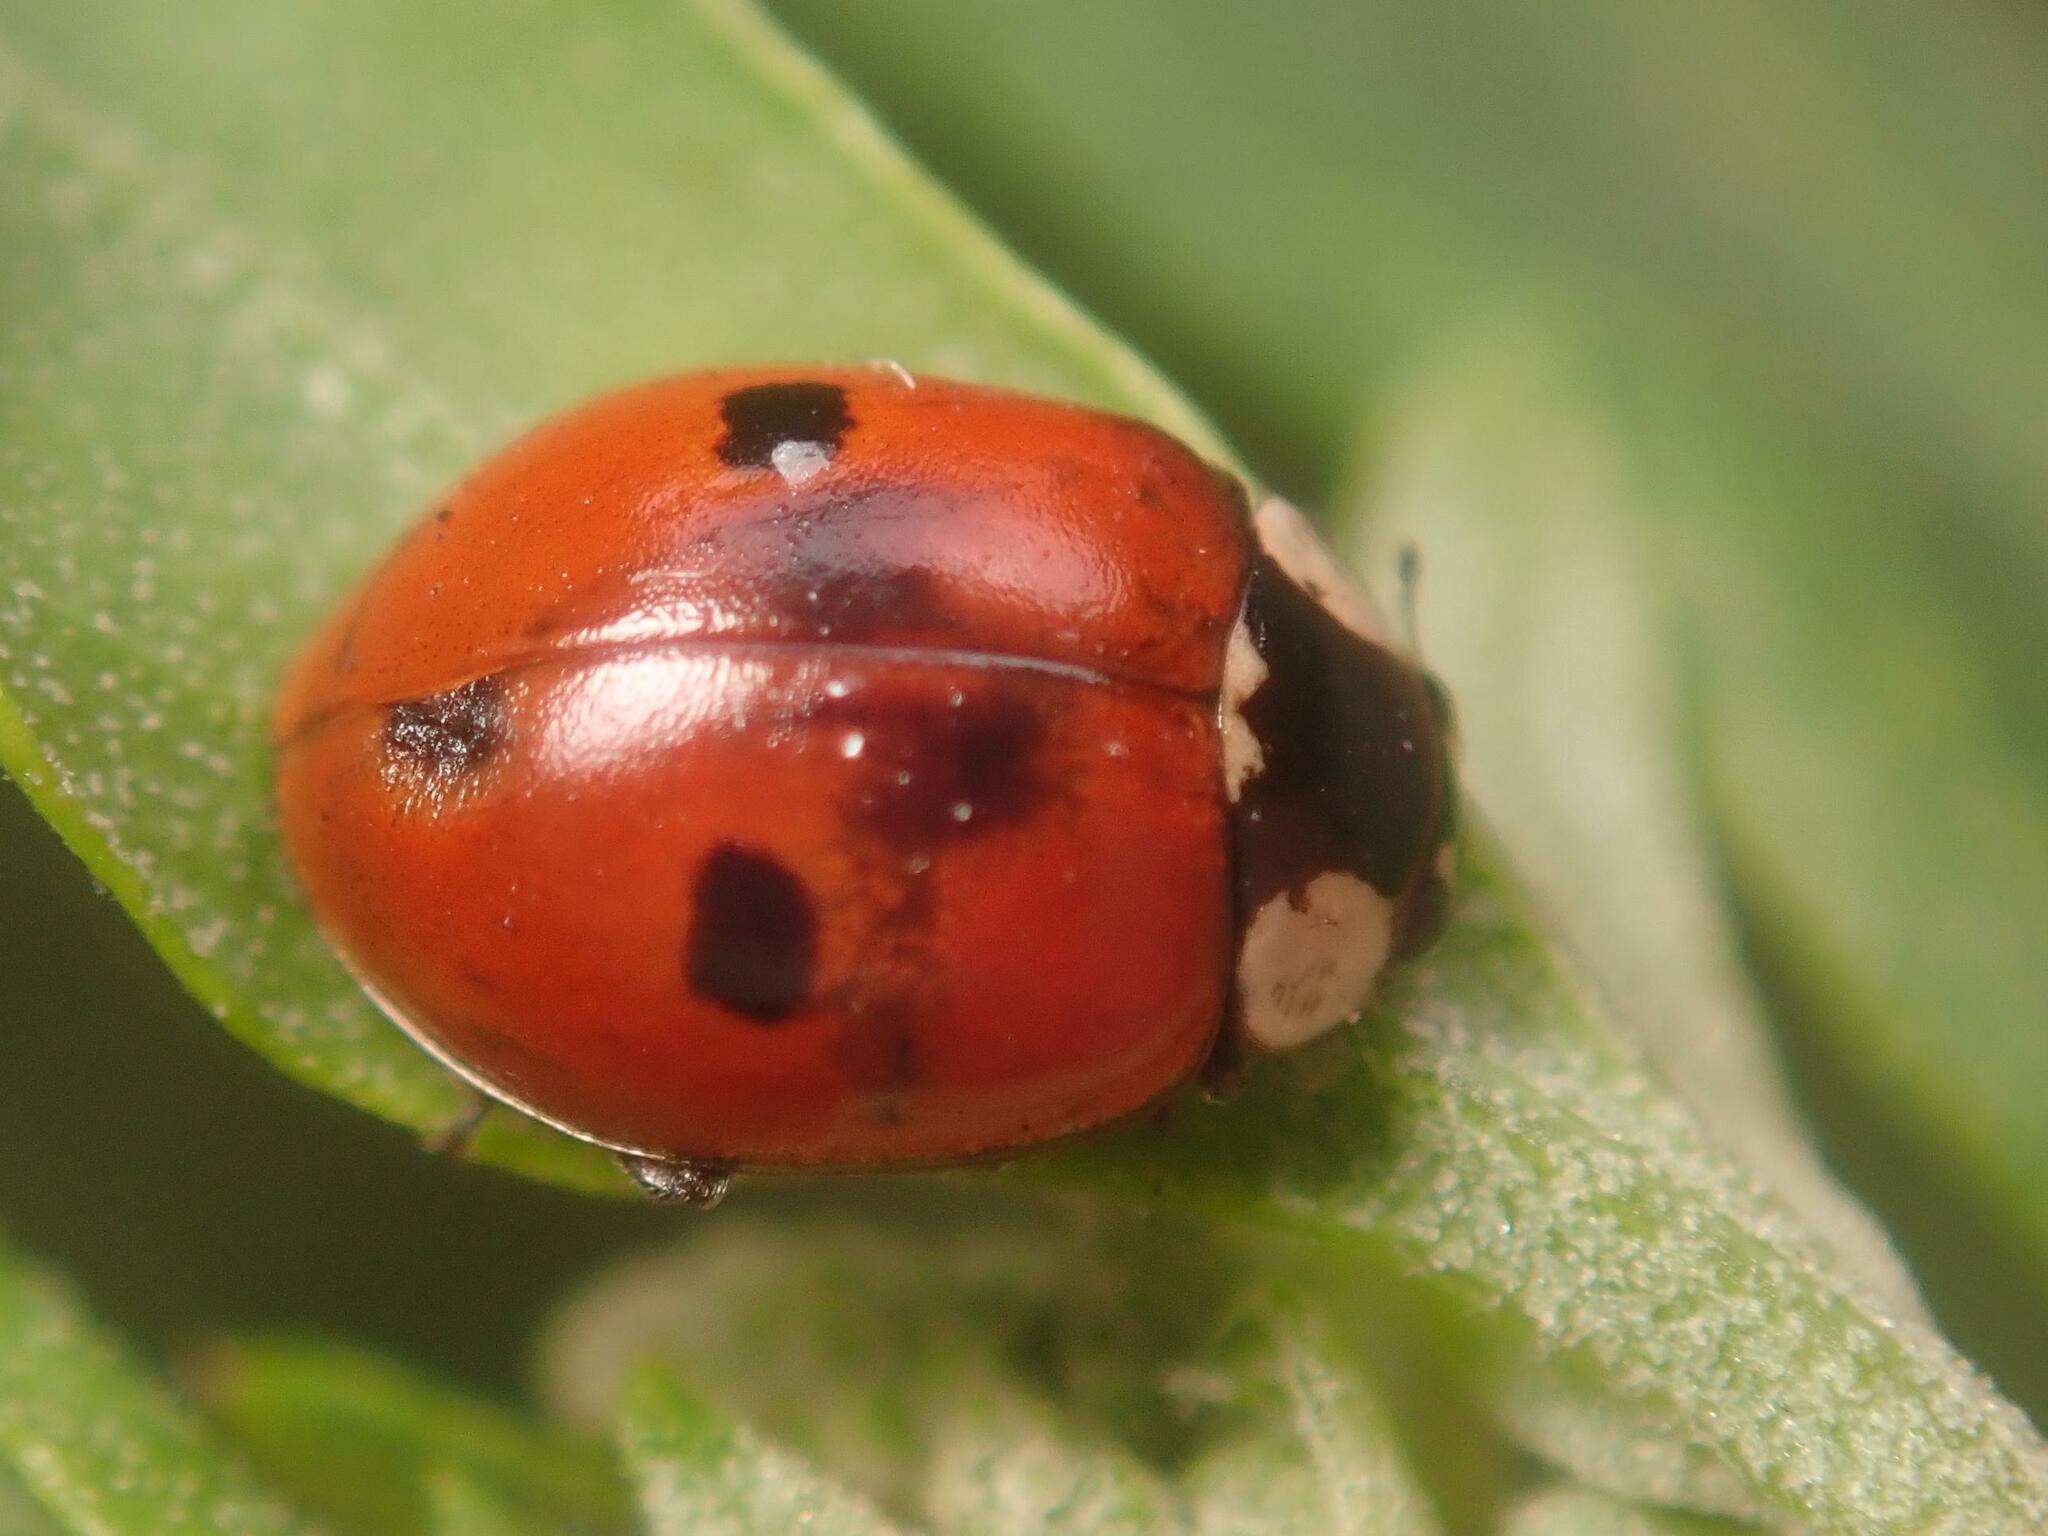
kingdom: Animalia
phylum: Arthropoda
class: Insecta
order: Coleoptera
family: Coccinellidae
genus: Adalia
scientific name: Adalia bipunctata
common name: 2-spot ladybird
